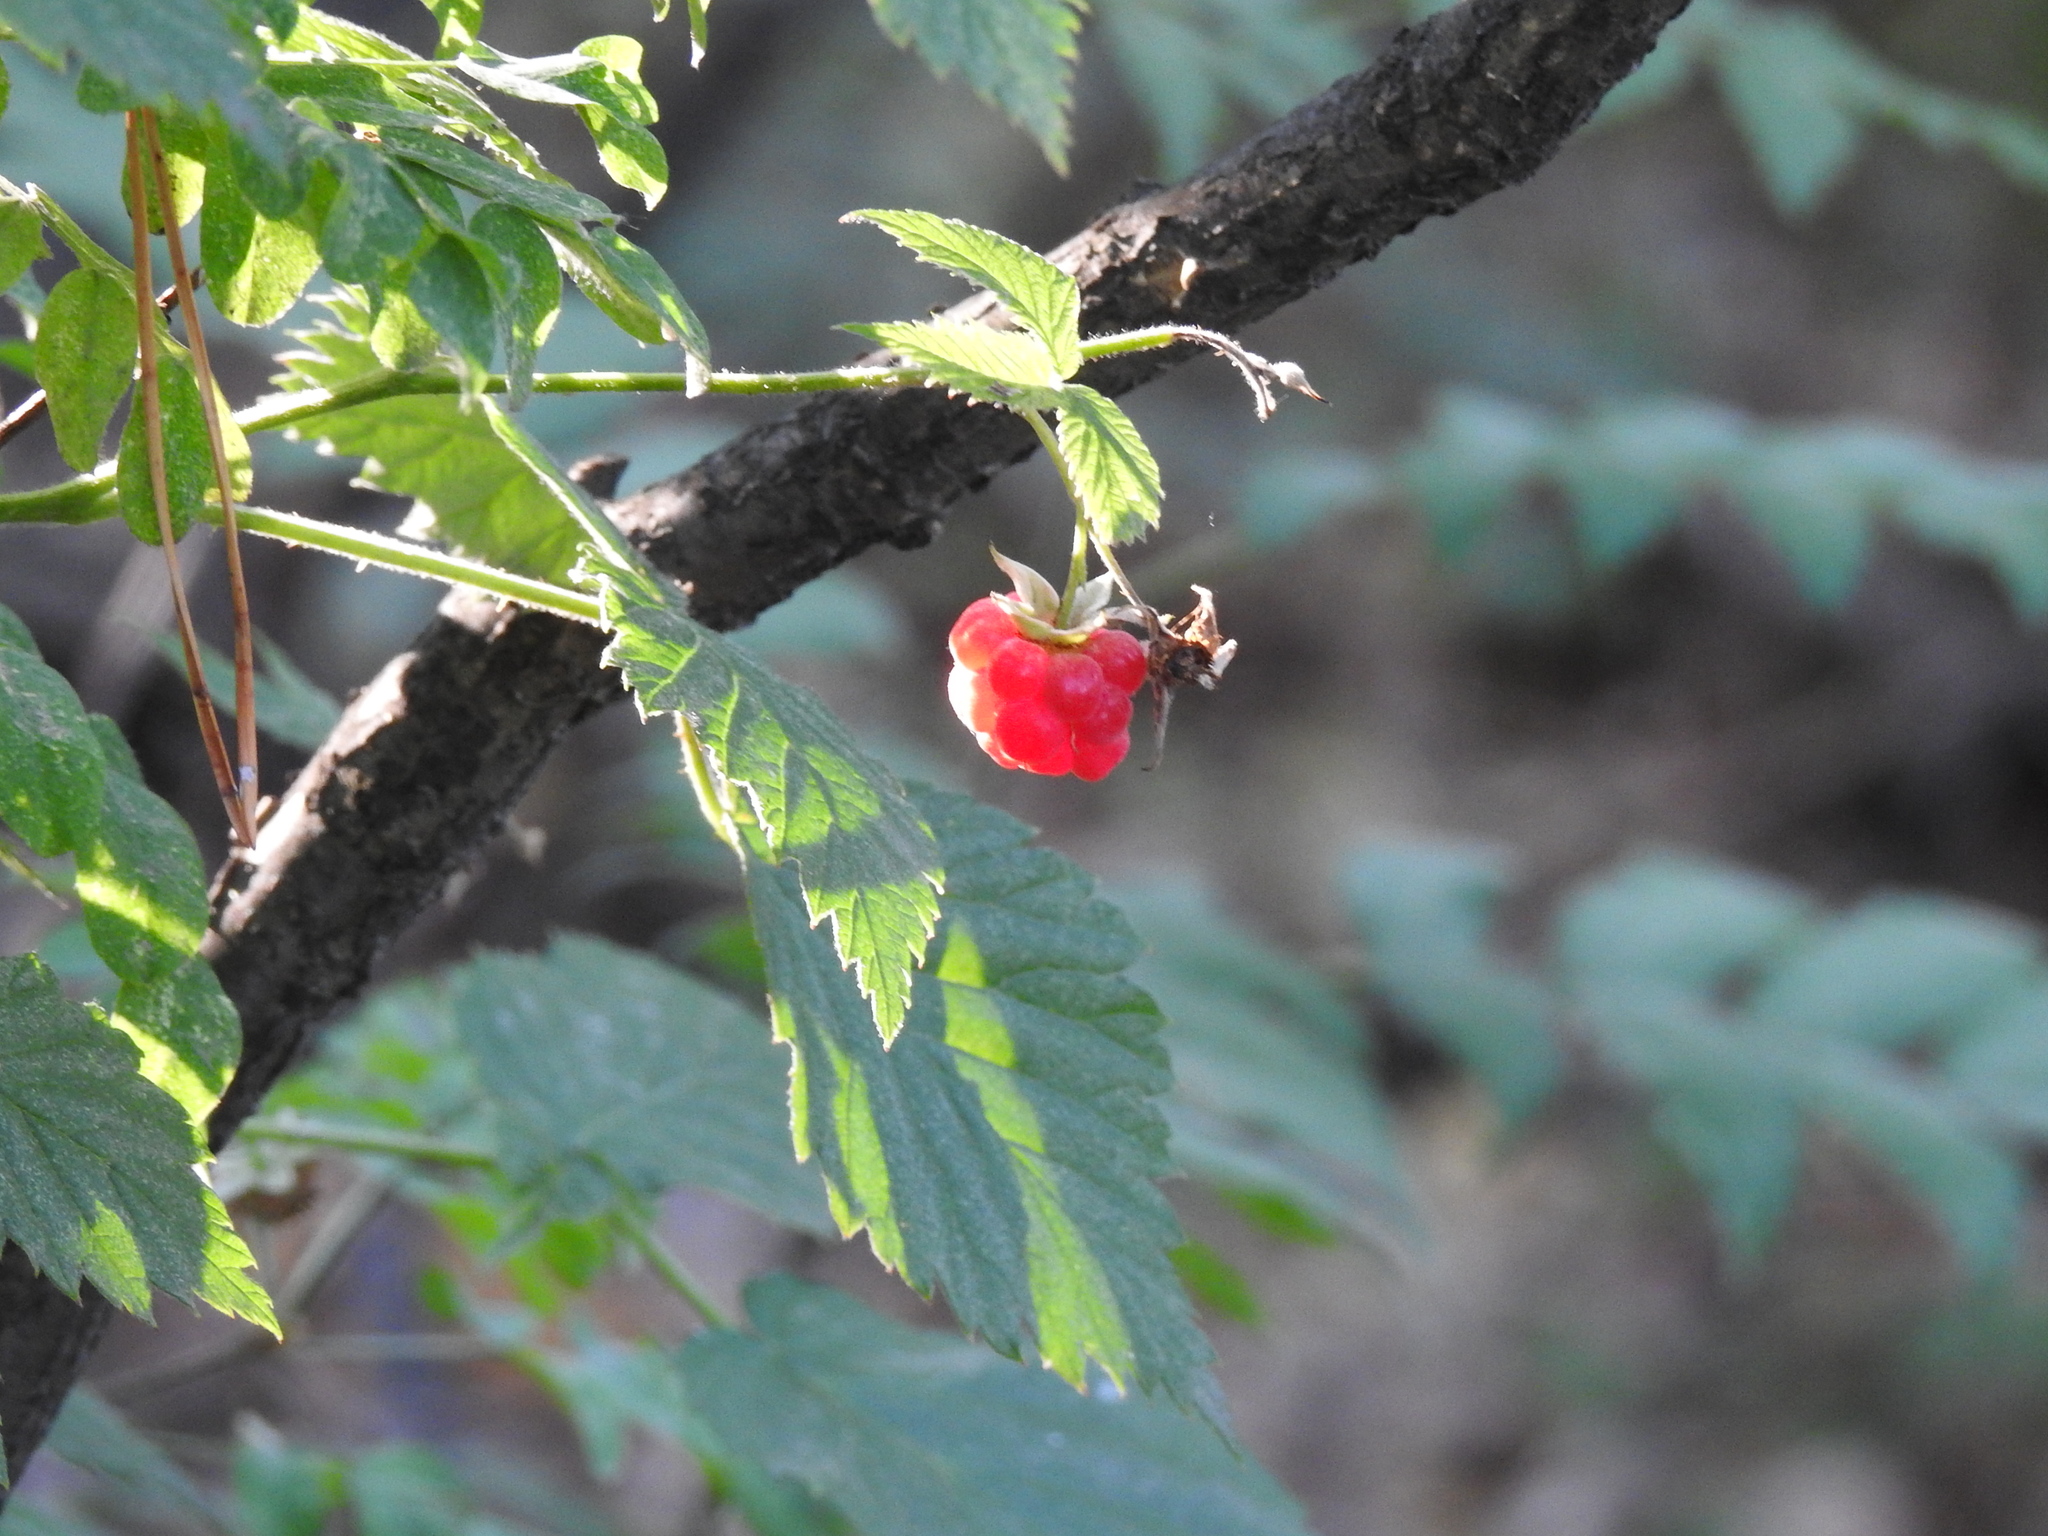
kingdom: Plantae
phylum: Tracheophyta
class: Magnoliopsida
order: Rosales
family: Rosaceae
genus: Rubus
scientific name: Rubus idaeus
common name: Raspberry
